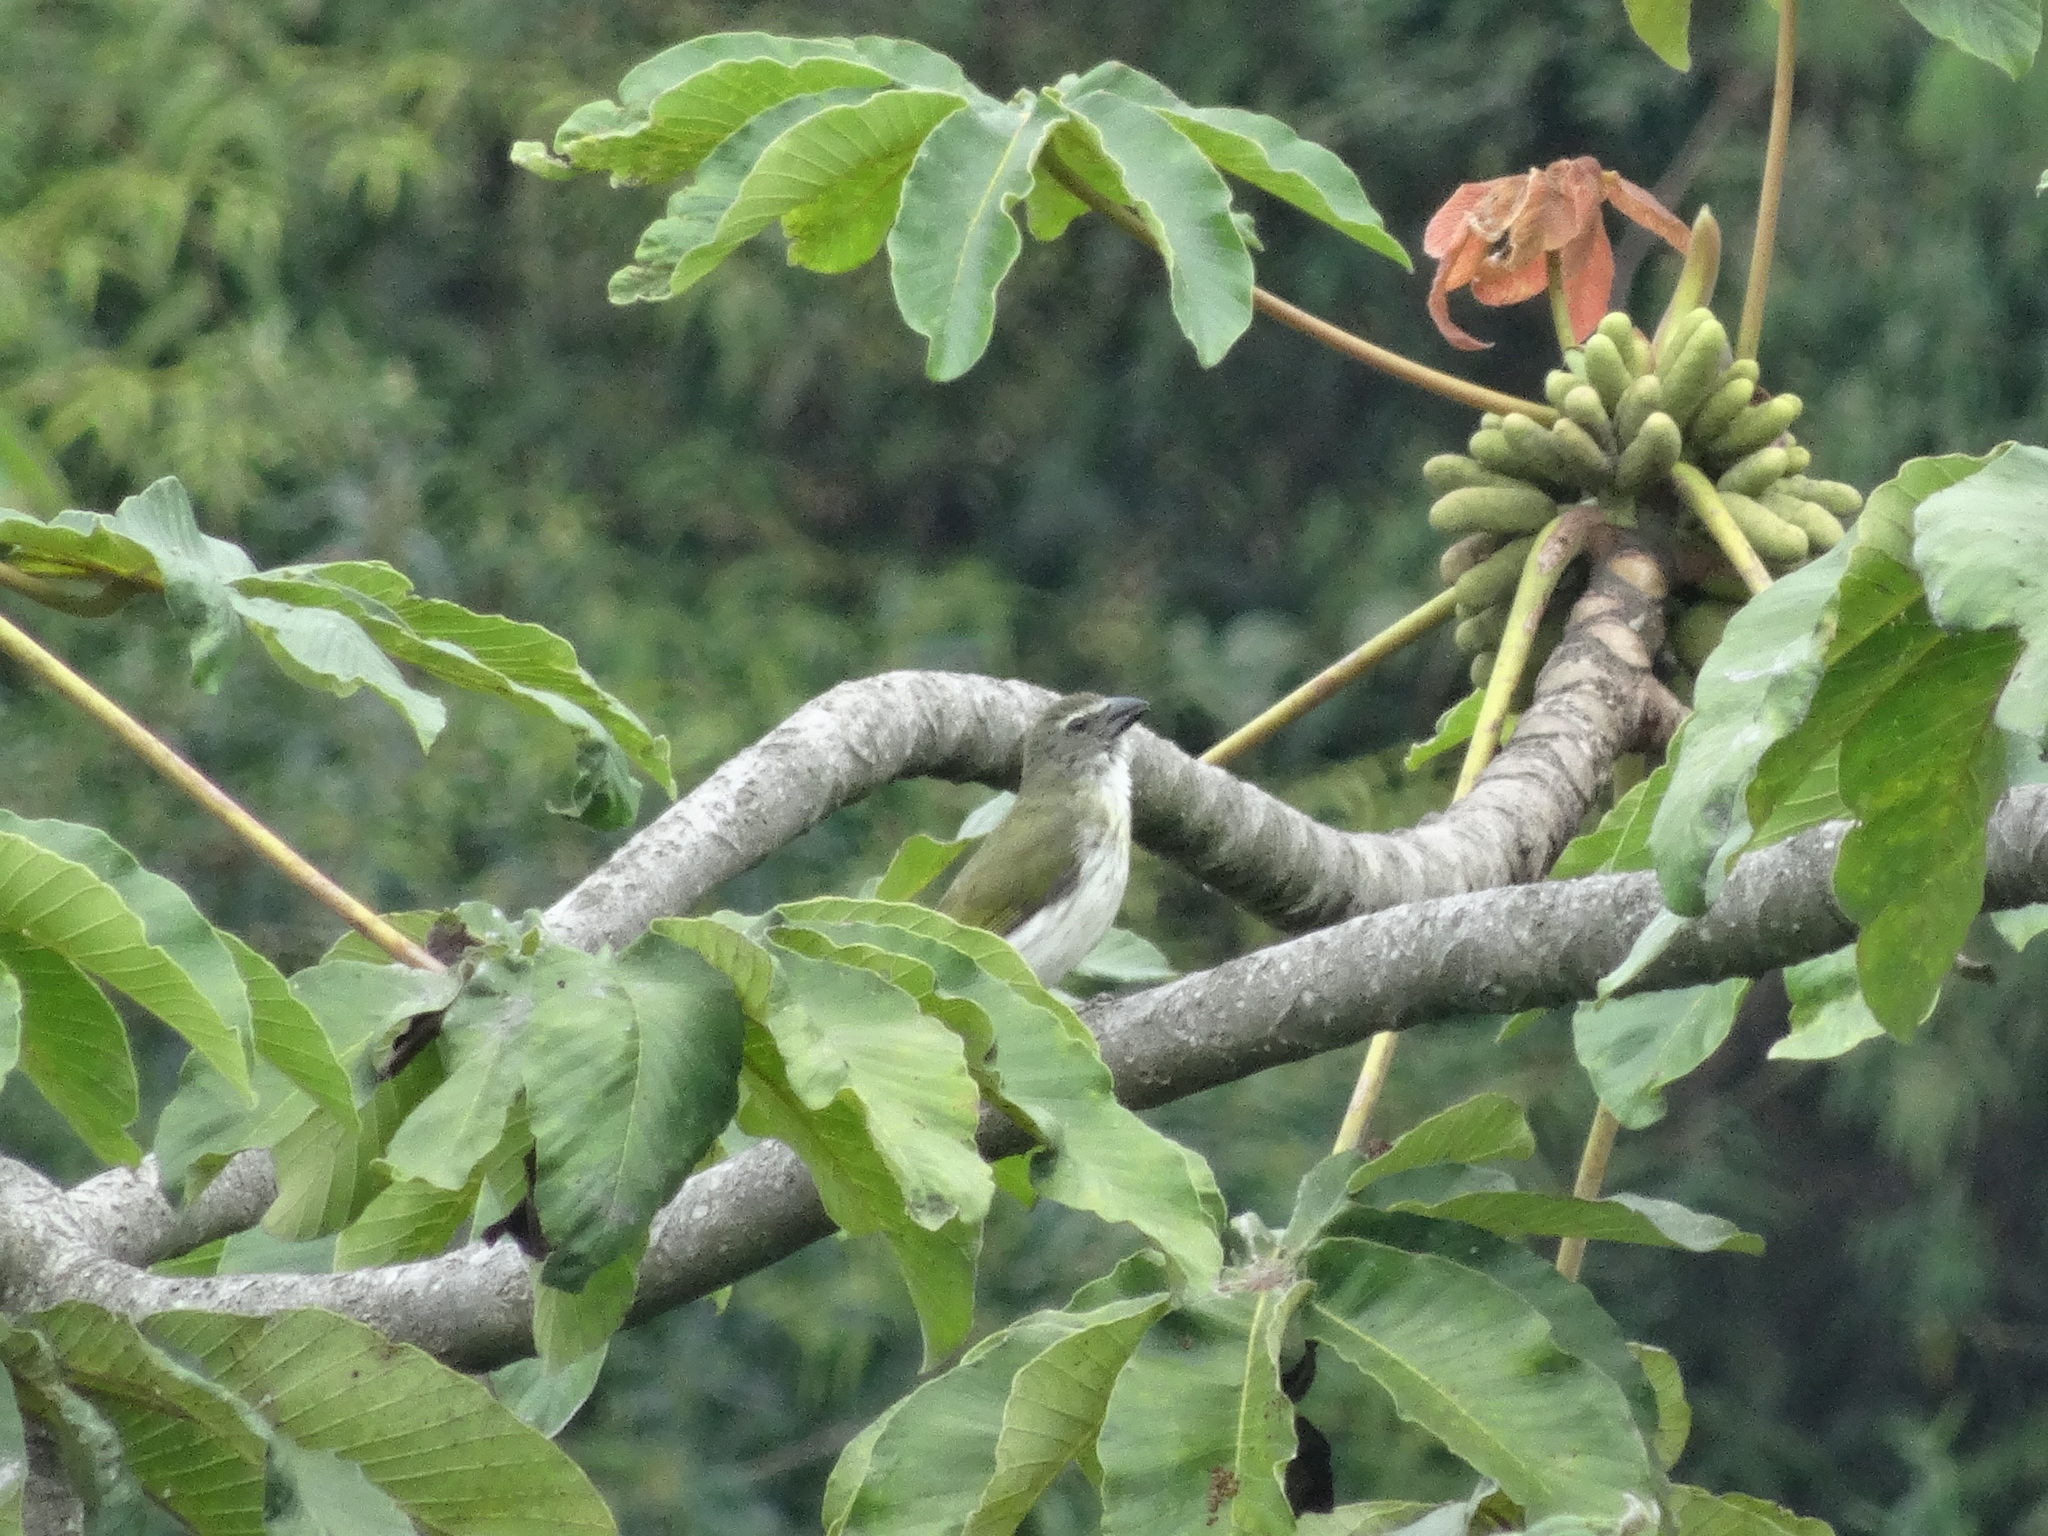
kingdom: Animalia
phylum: Chordata
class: Aves
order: Passeriformes
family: Thraupidae
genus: Saltator
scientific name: Saltator striatipectus
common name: Streaked saltator
